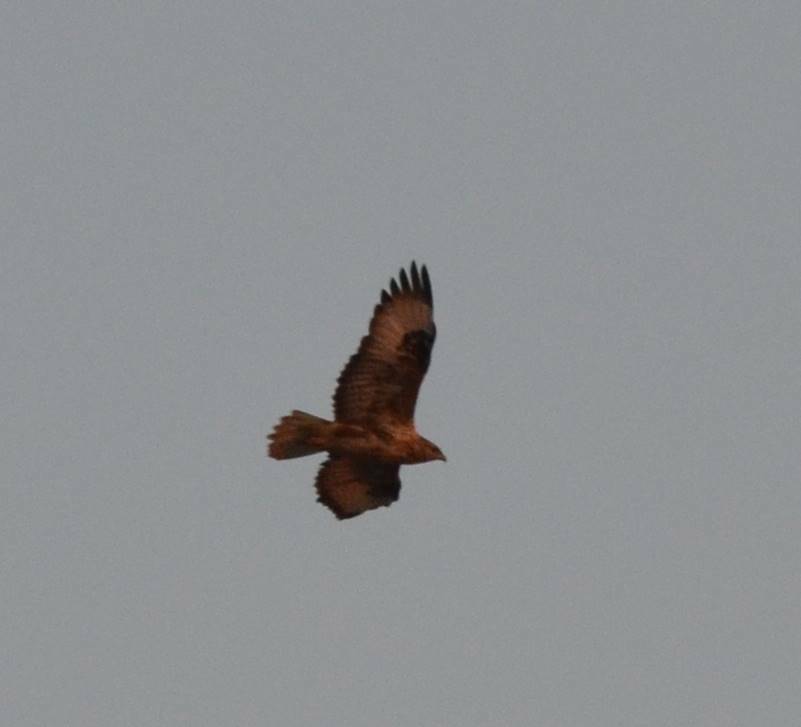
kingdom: Animalia
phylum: Chordata
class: Aves
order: Accipitriformes
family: Accipitridae
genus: Buteo
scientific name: Buteo rufinus
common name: Long-legged buzzard
